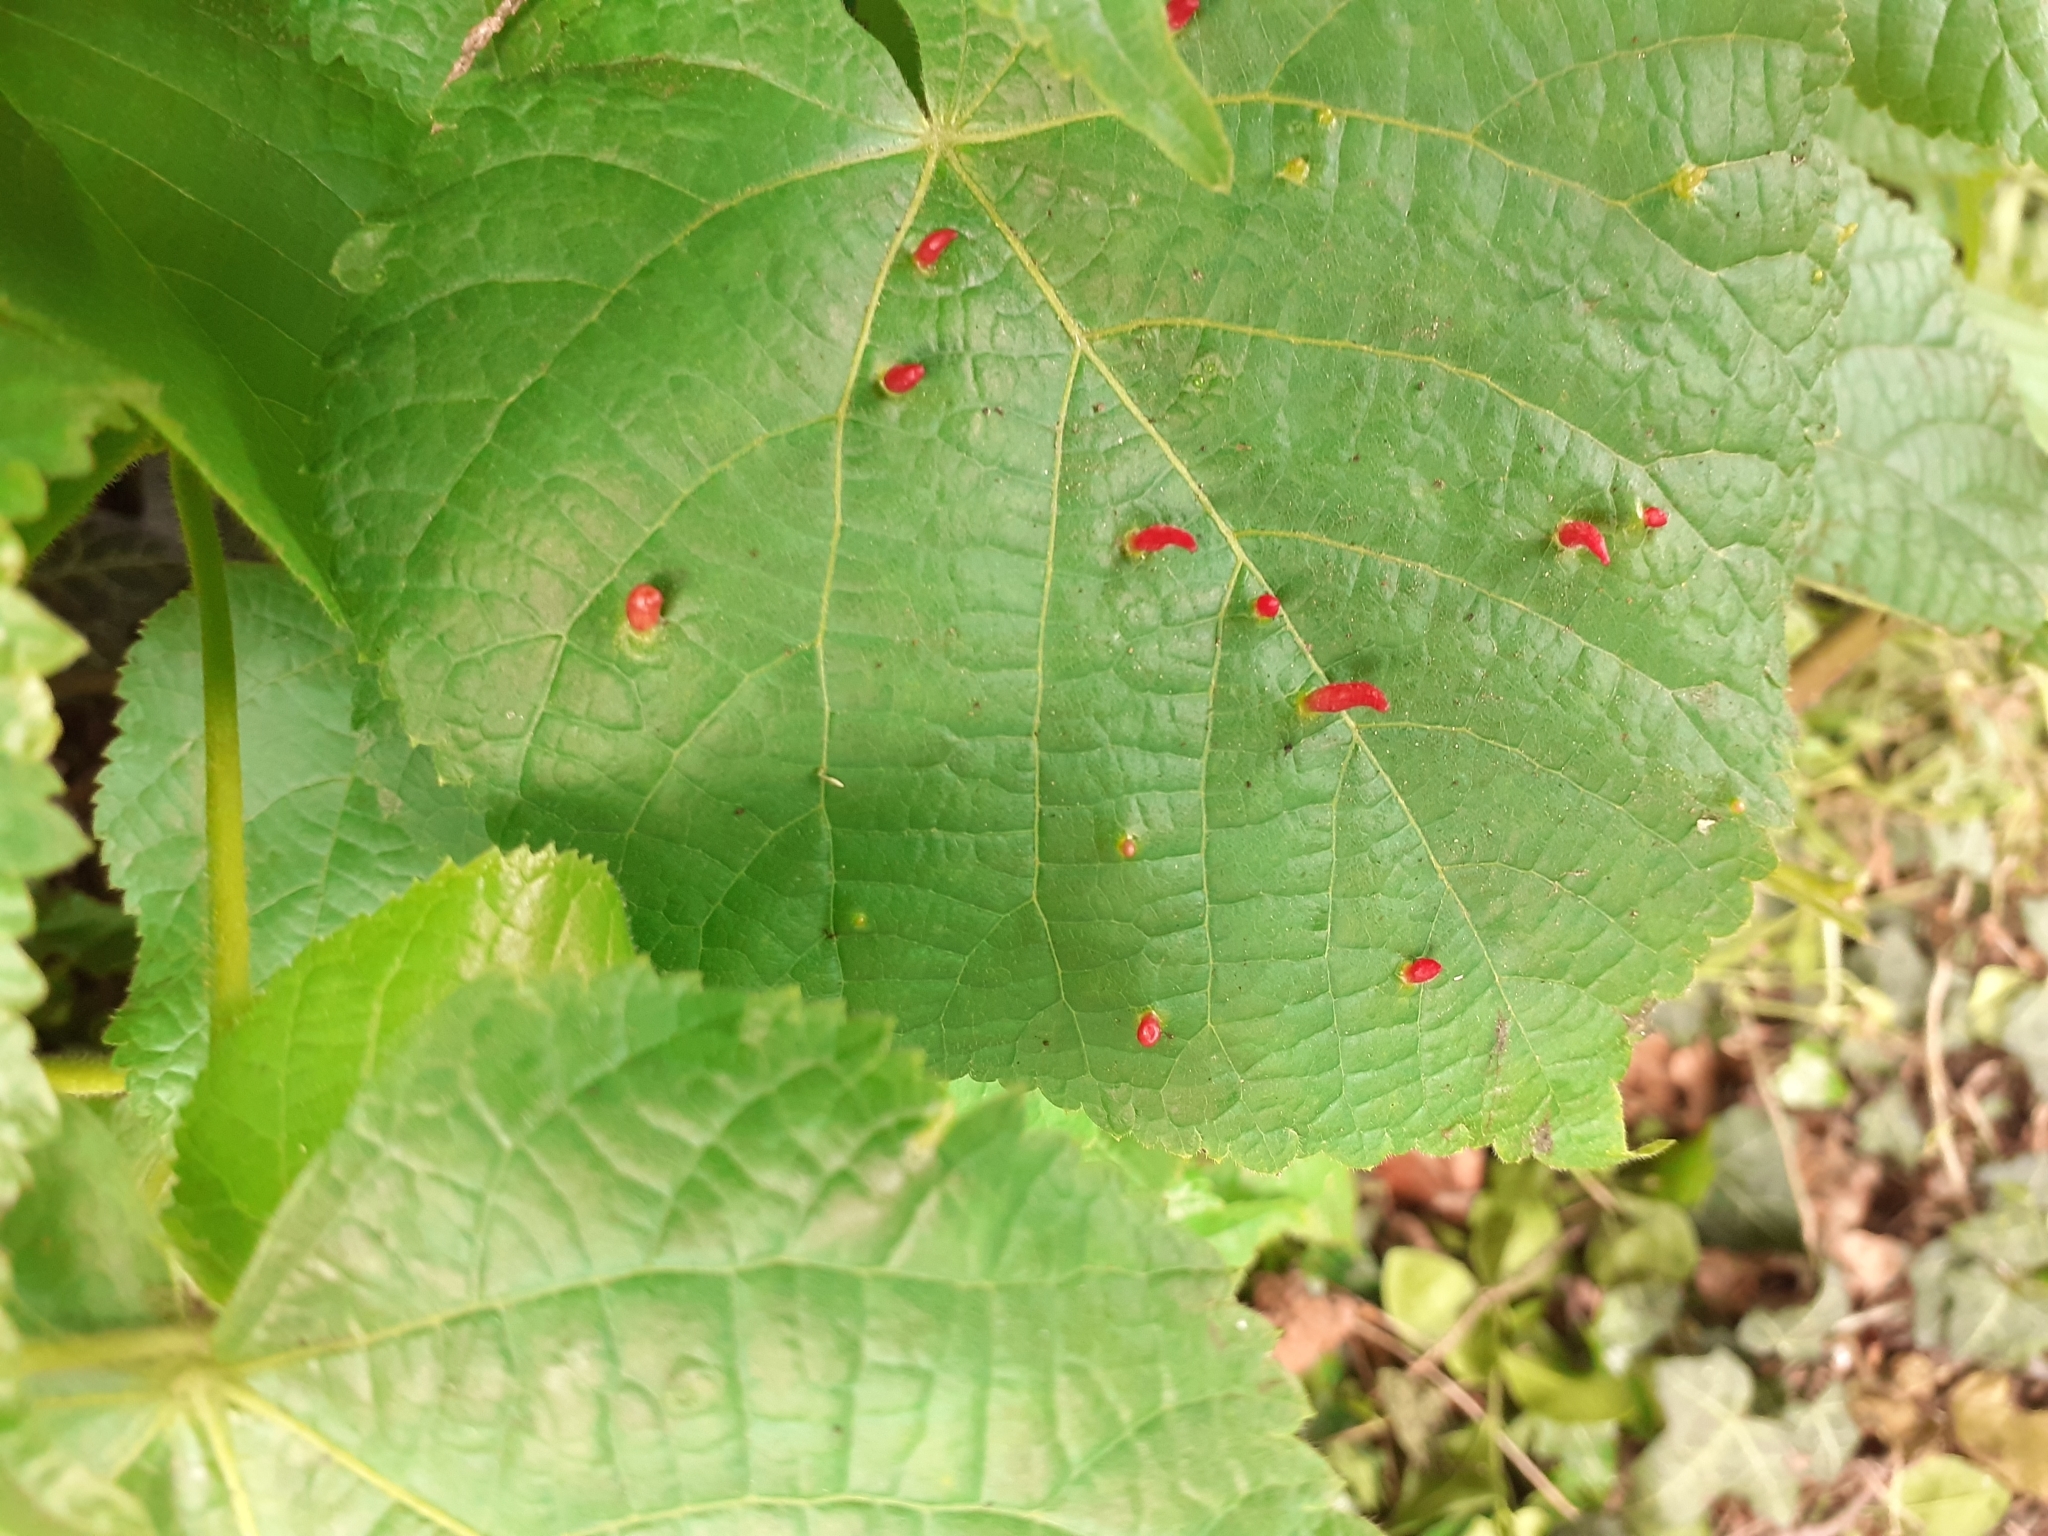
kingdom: Animalia
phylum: Arthropoda
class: Arachnida
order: Trombidiformes
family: Eriophyidae
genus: Eriophyes
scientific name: Eriophyes tiliae
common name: Red nail gall mite
